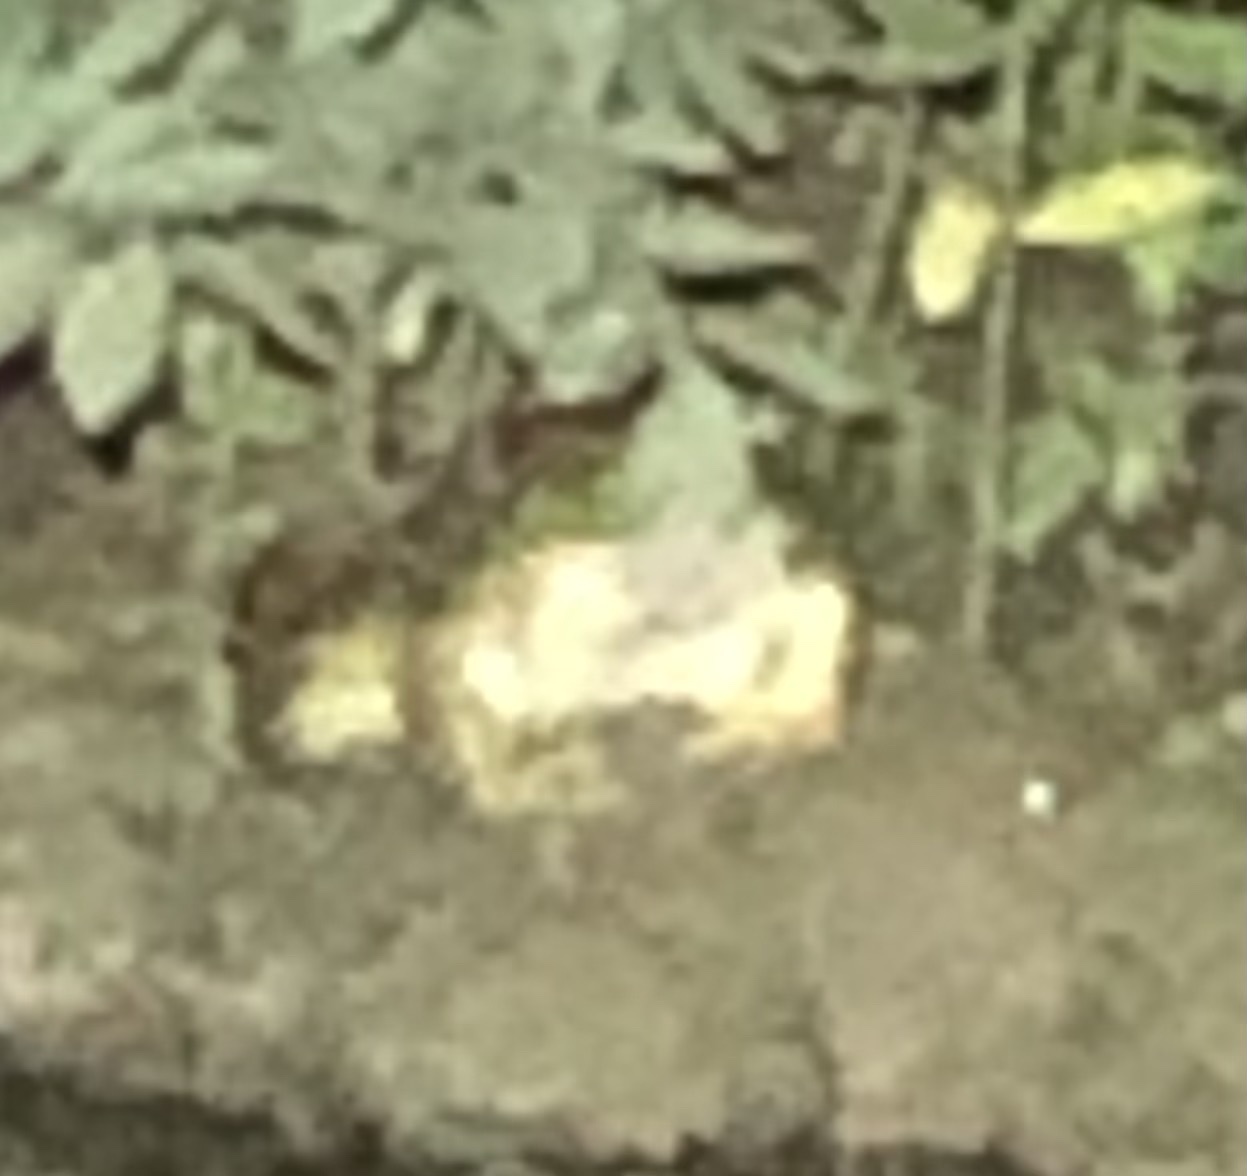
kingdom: Animalia
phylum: Chordata
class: Amphibia
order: Anura
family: Ranidae
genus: Lithobates
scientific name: Lithobates catesbeianus
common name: American bullfrog
